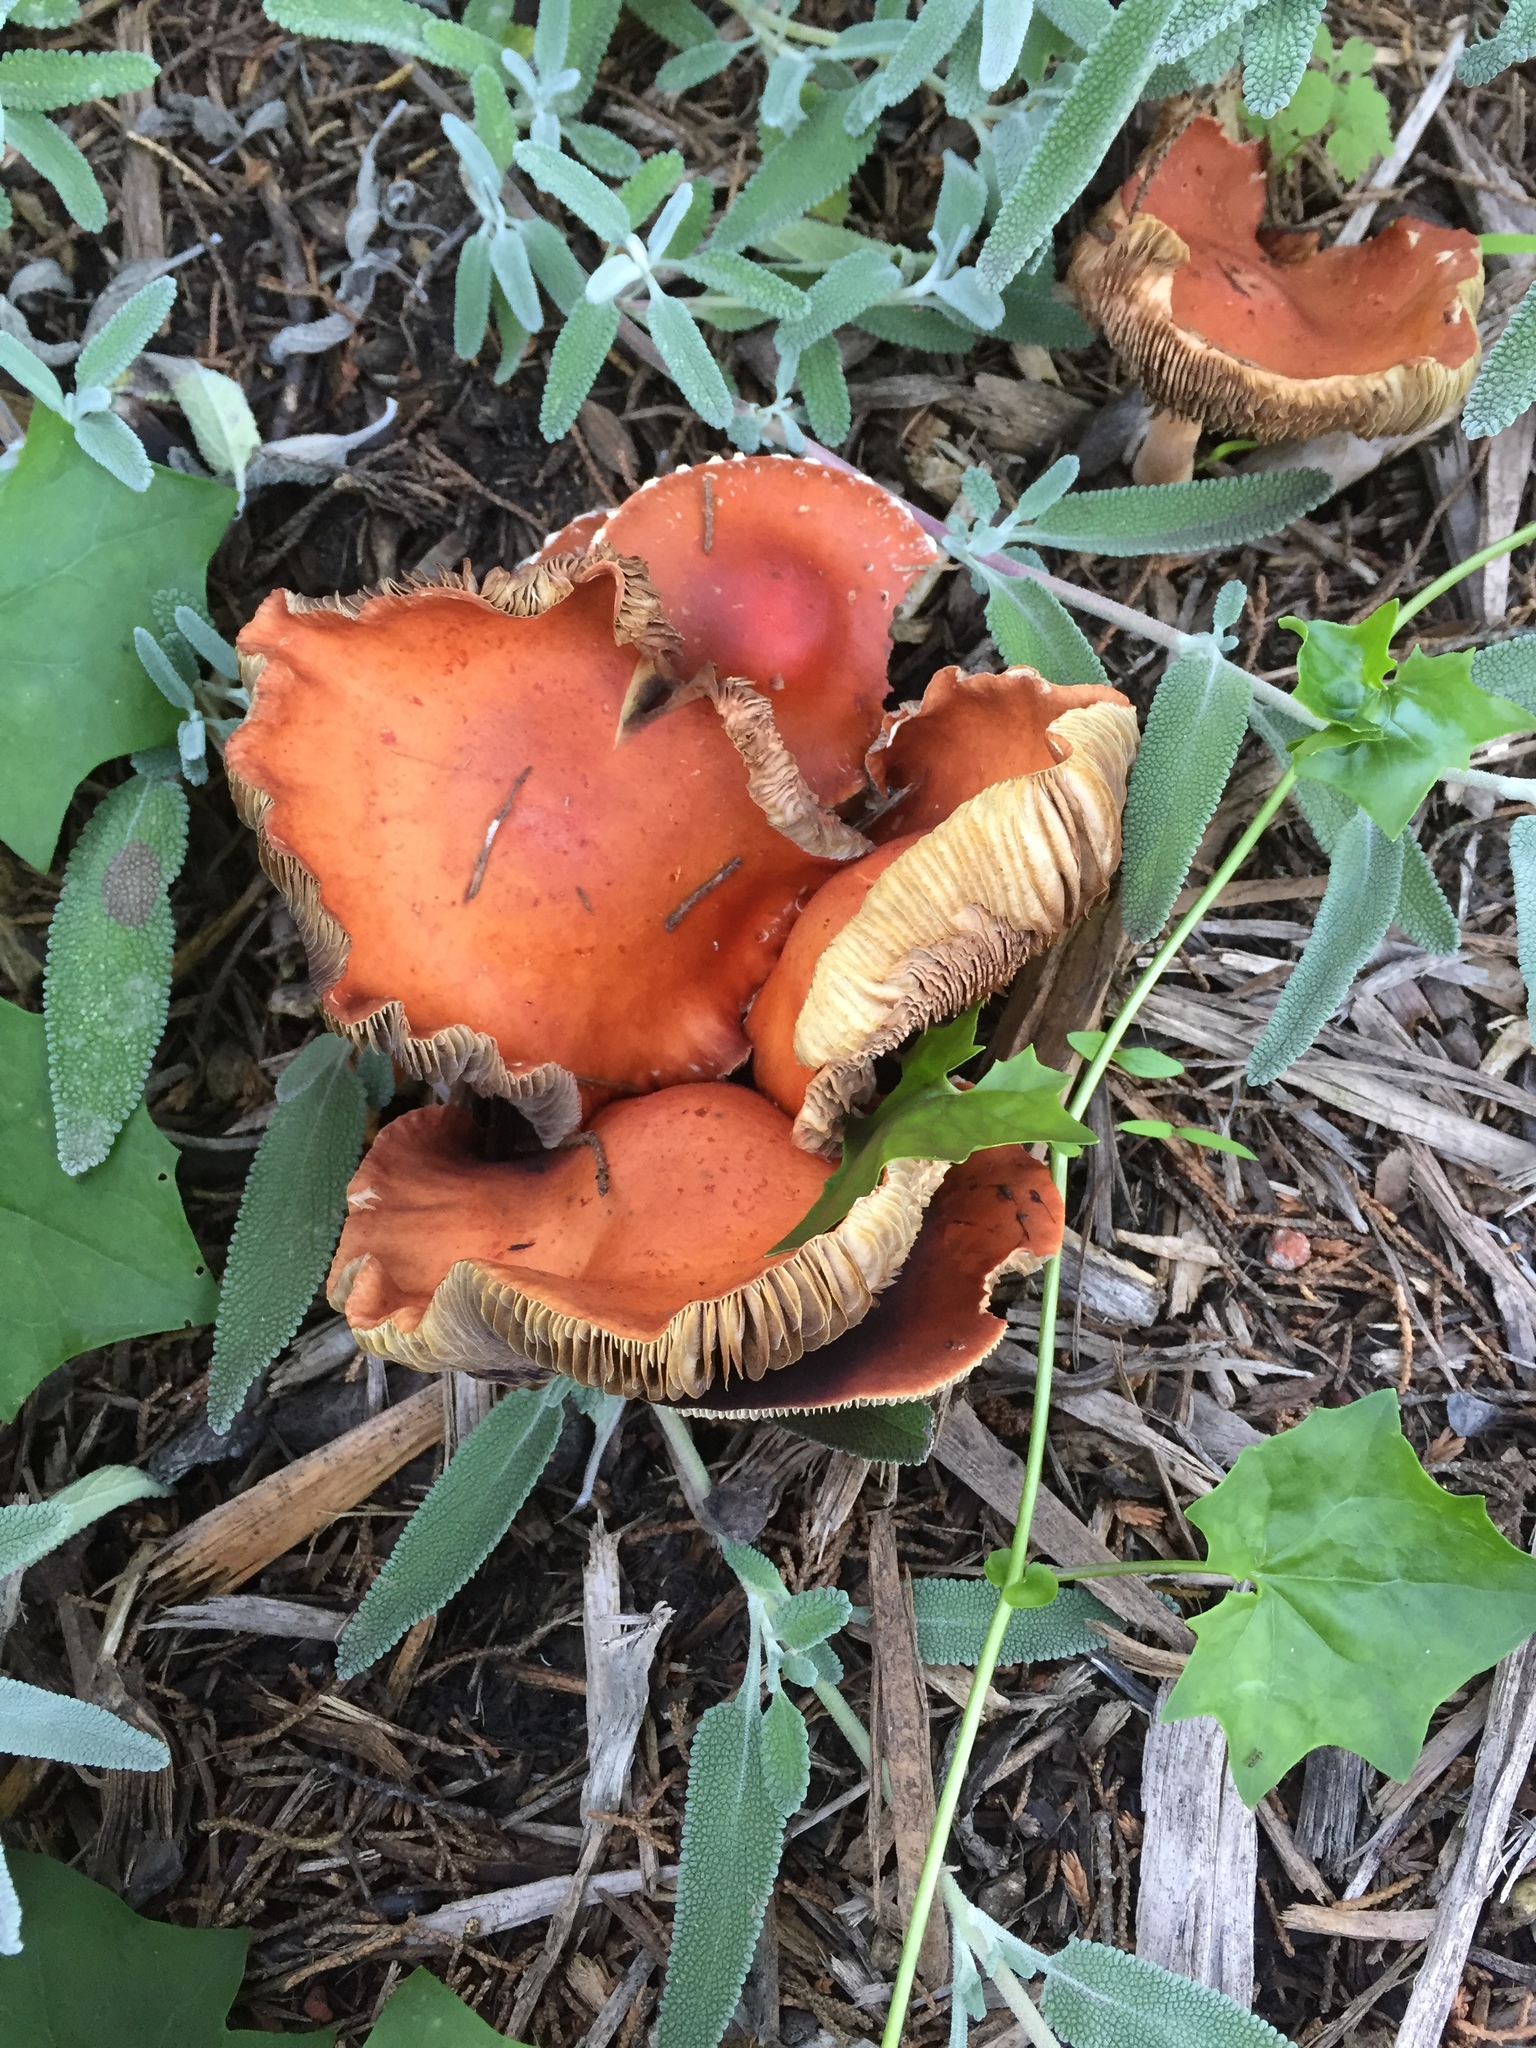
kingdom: Fungi
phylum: Basidiomycota
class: Agaricomycetes
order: Agaricales
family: Strophariaceae
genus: Leratiomyces
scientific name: Leratiomyces ceres
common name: Redlead roundhead
